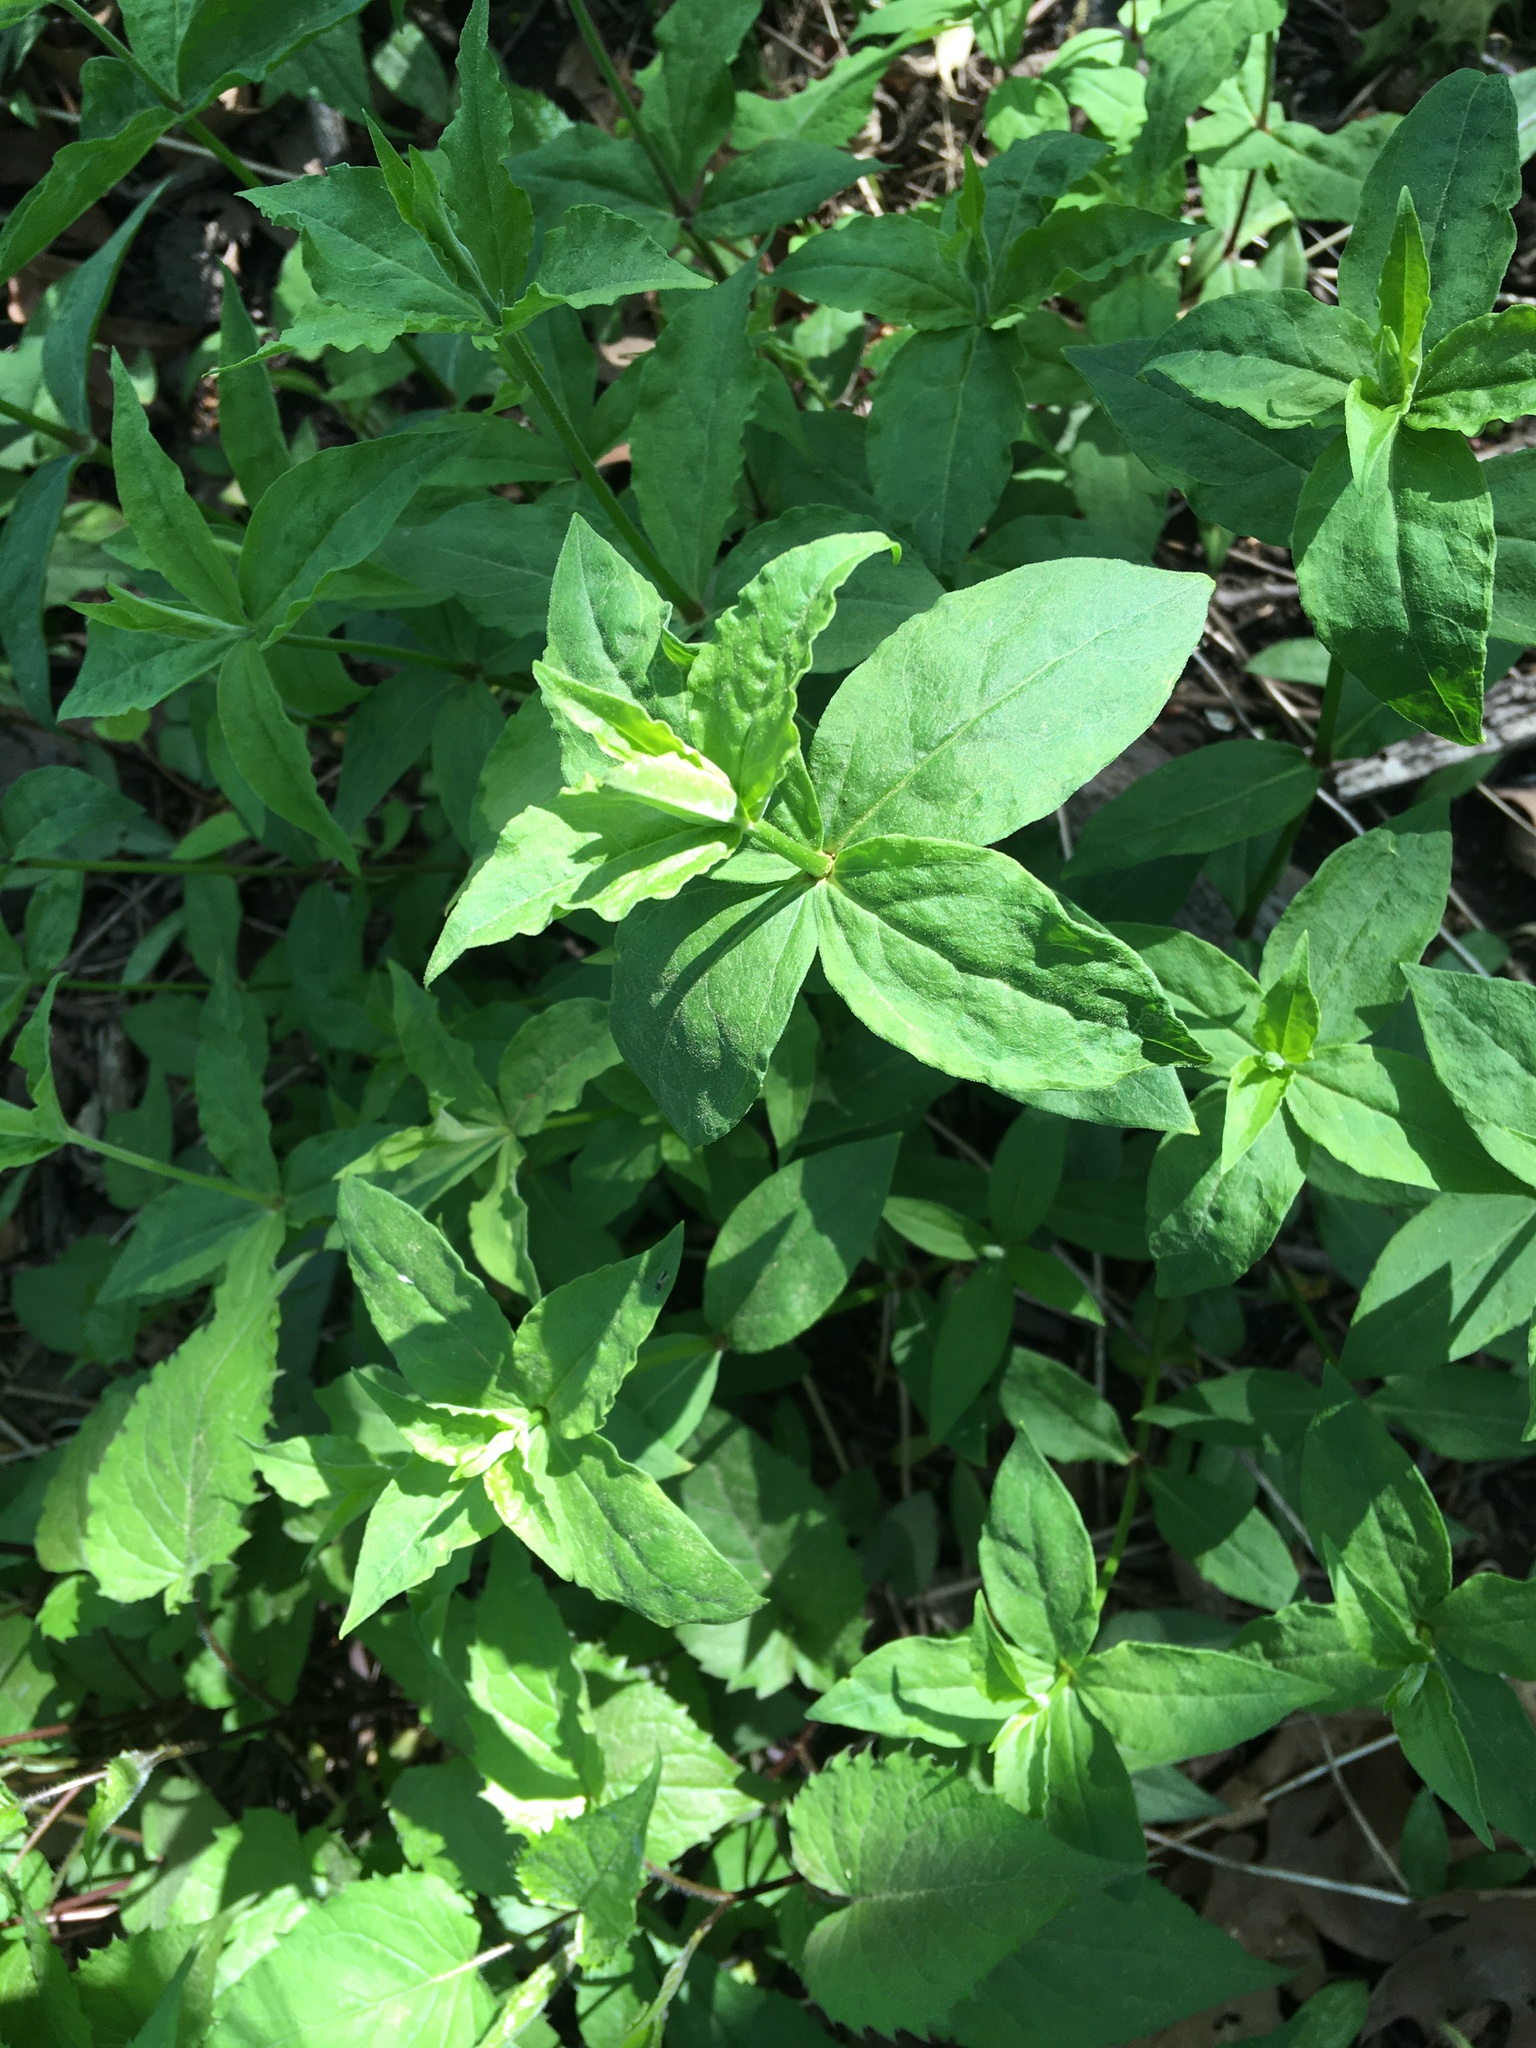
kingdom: Plantae
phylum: Tracheophyta
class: Magnoliopsida
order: Caryophyllales
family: Caryophyllaceae
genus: Silene
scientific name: Silene stellata
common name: Starry campion
